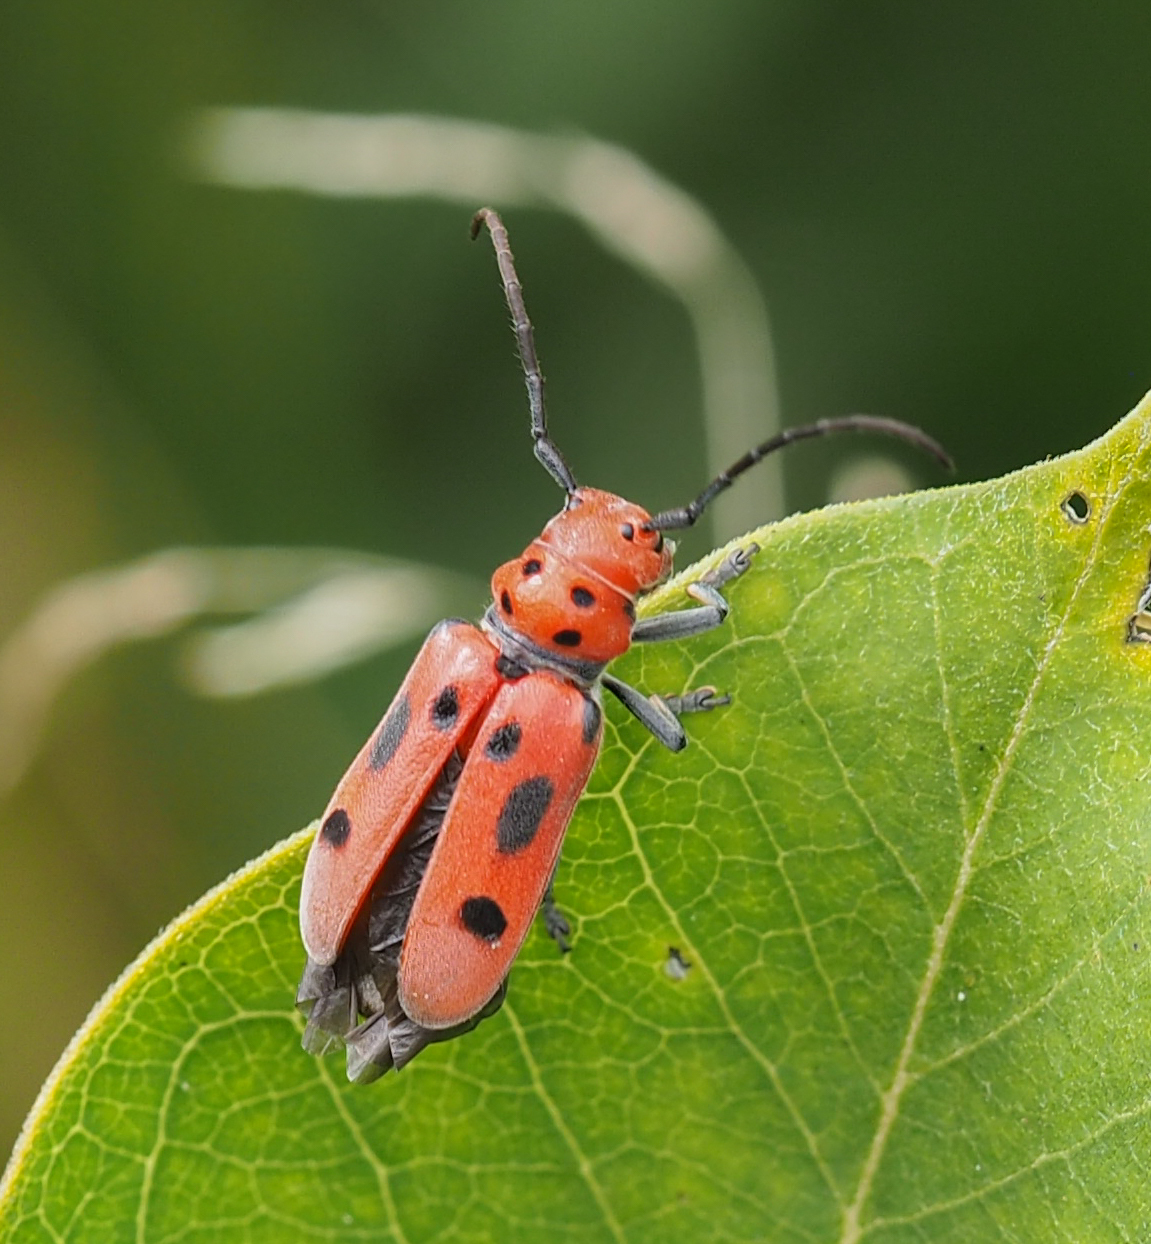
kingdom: Animalia
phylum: Arthropoda
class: Insecta
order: Coleoptera
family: Cerambycidae
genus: Tetraopes
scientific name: Tetraopes tetrophthalmus
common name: Red milkweed beetle
